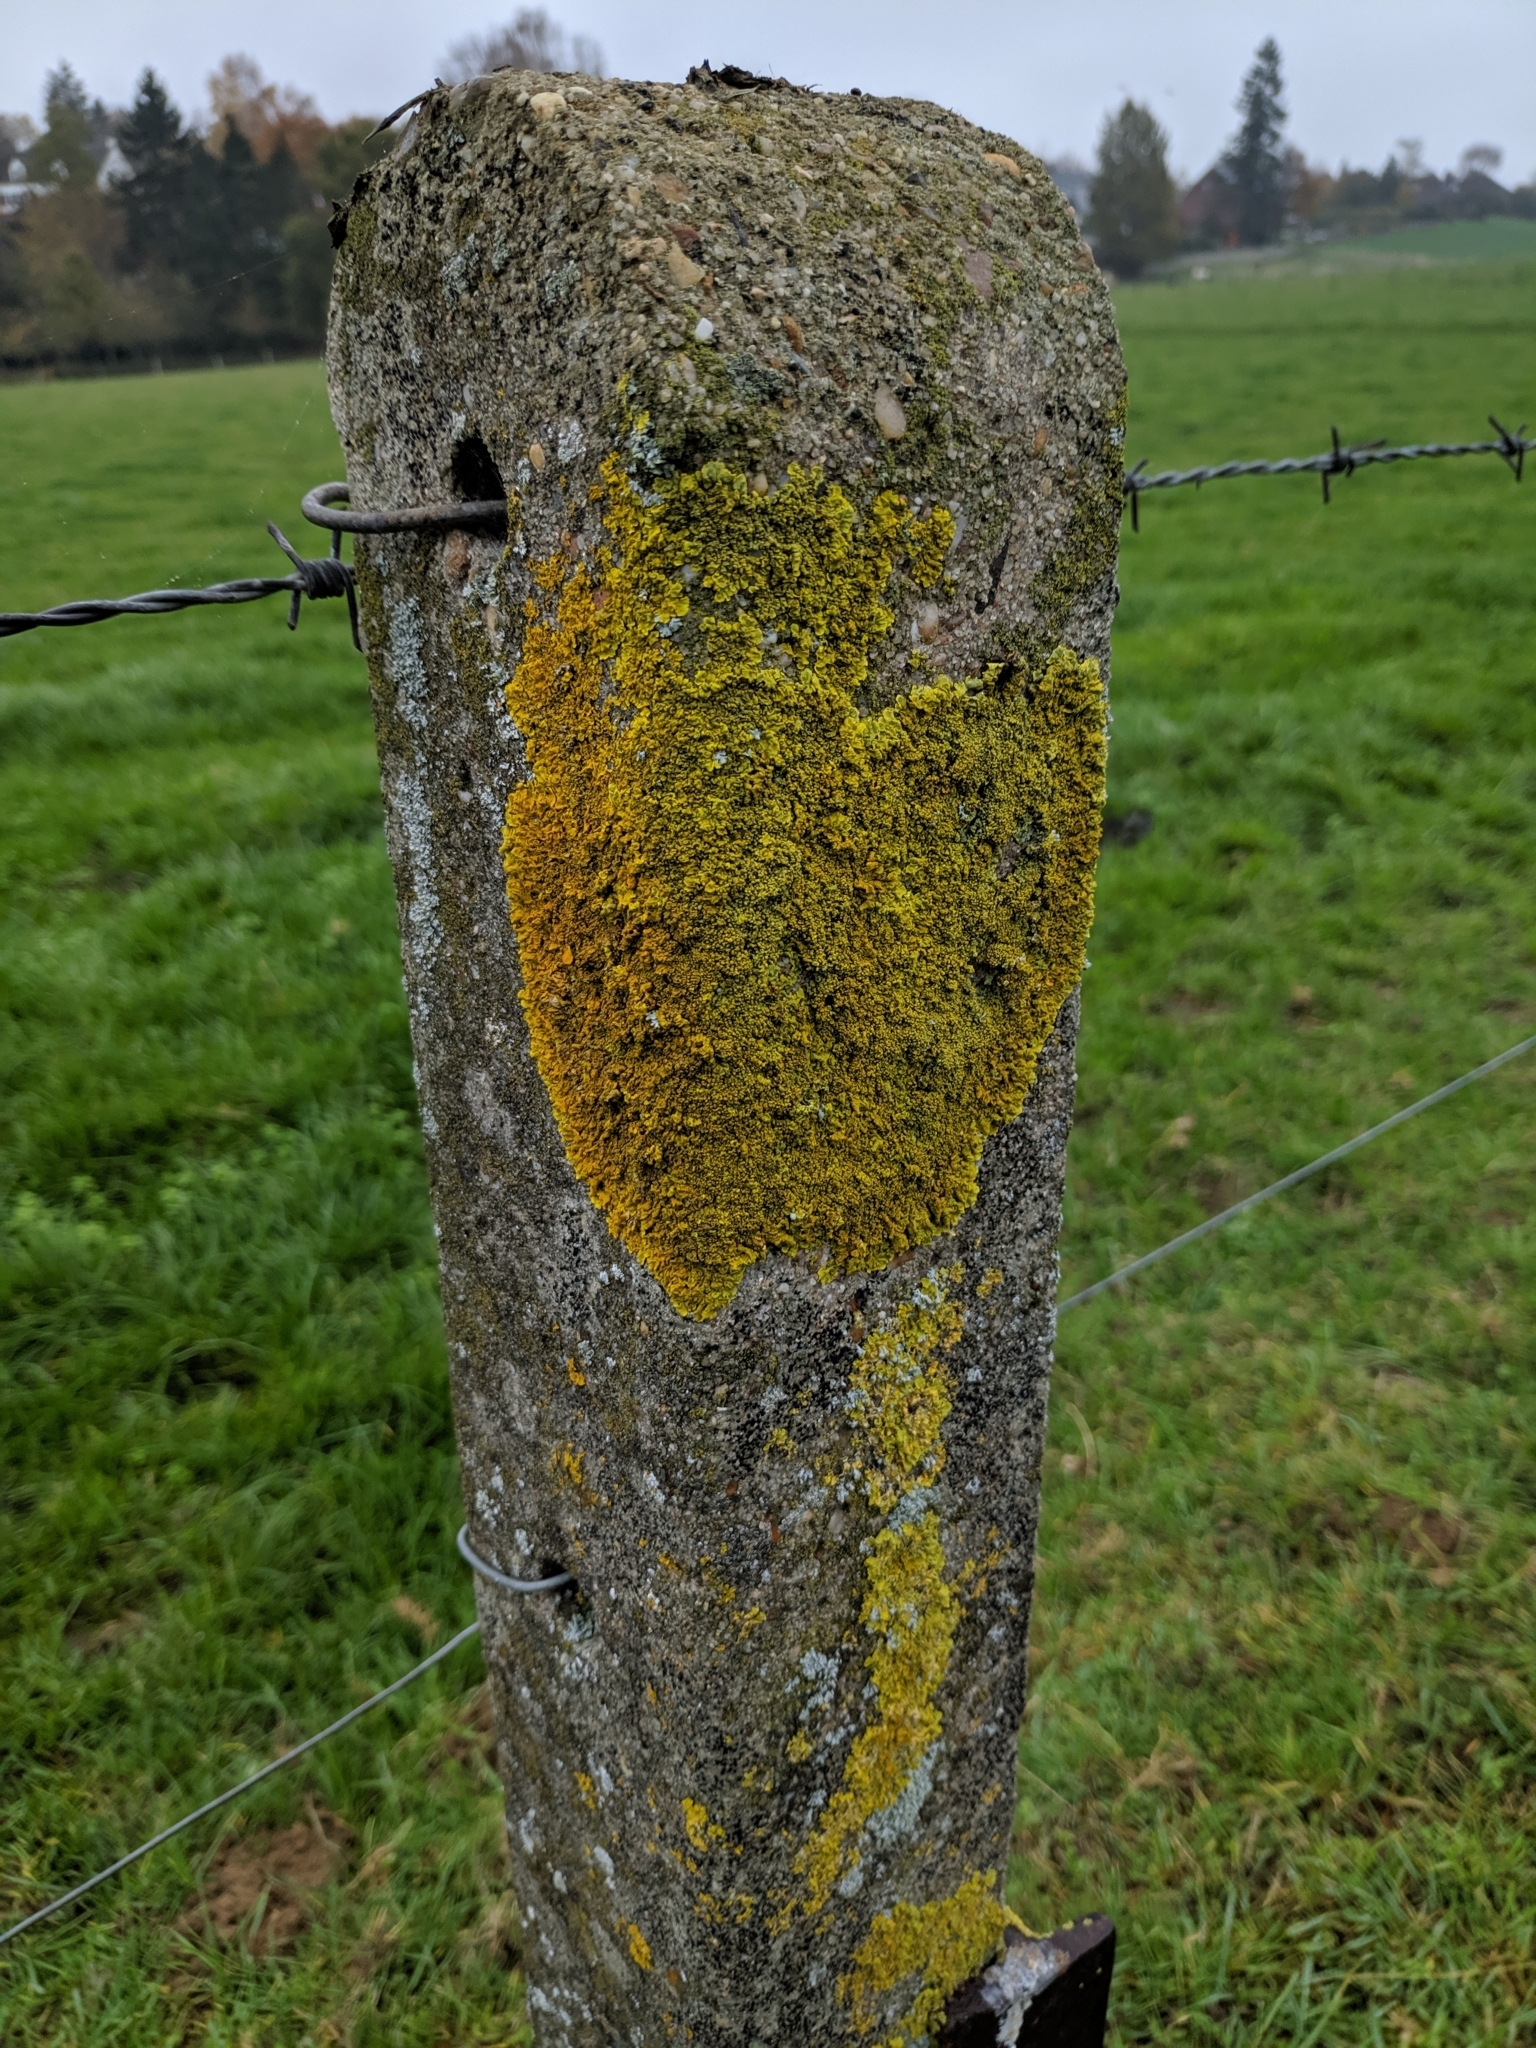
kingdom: Fungi
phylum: Ascomycota
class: Lecanoromycetes
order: Teloschistales
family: Teloschistaceae
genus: Xanthoria
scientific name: Xanthoria calcicola
